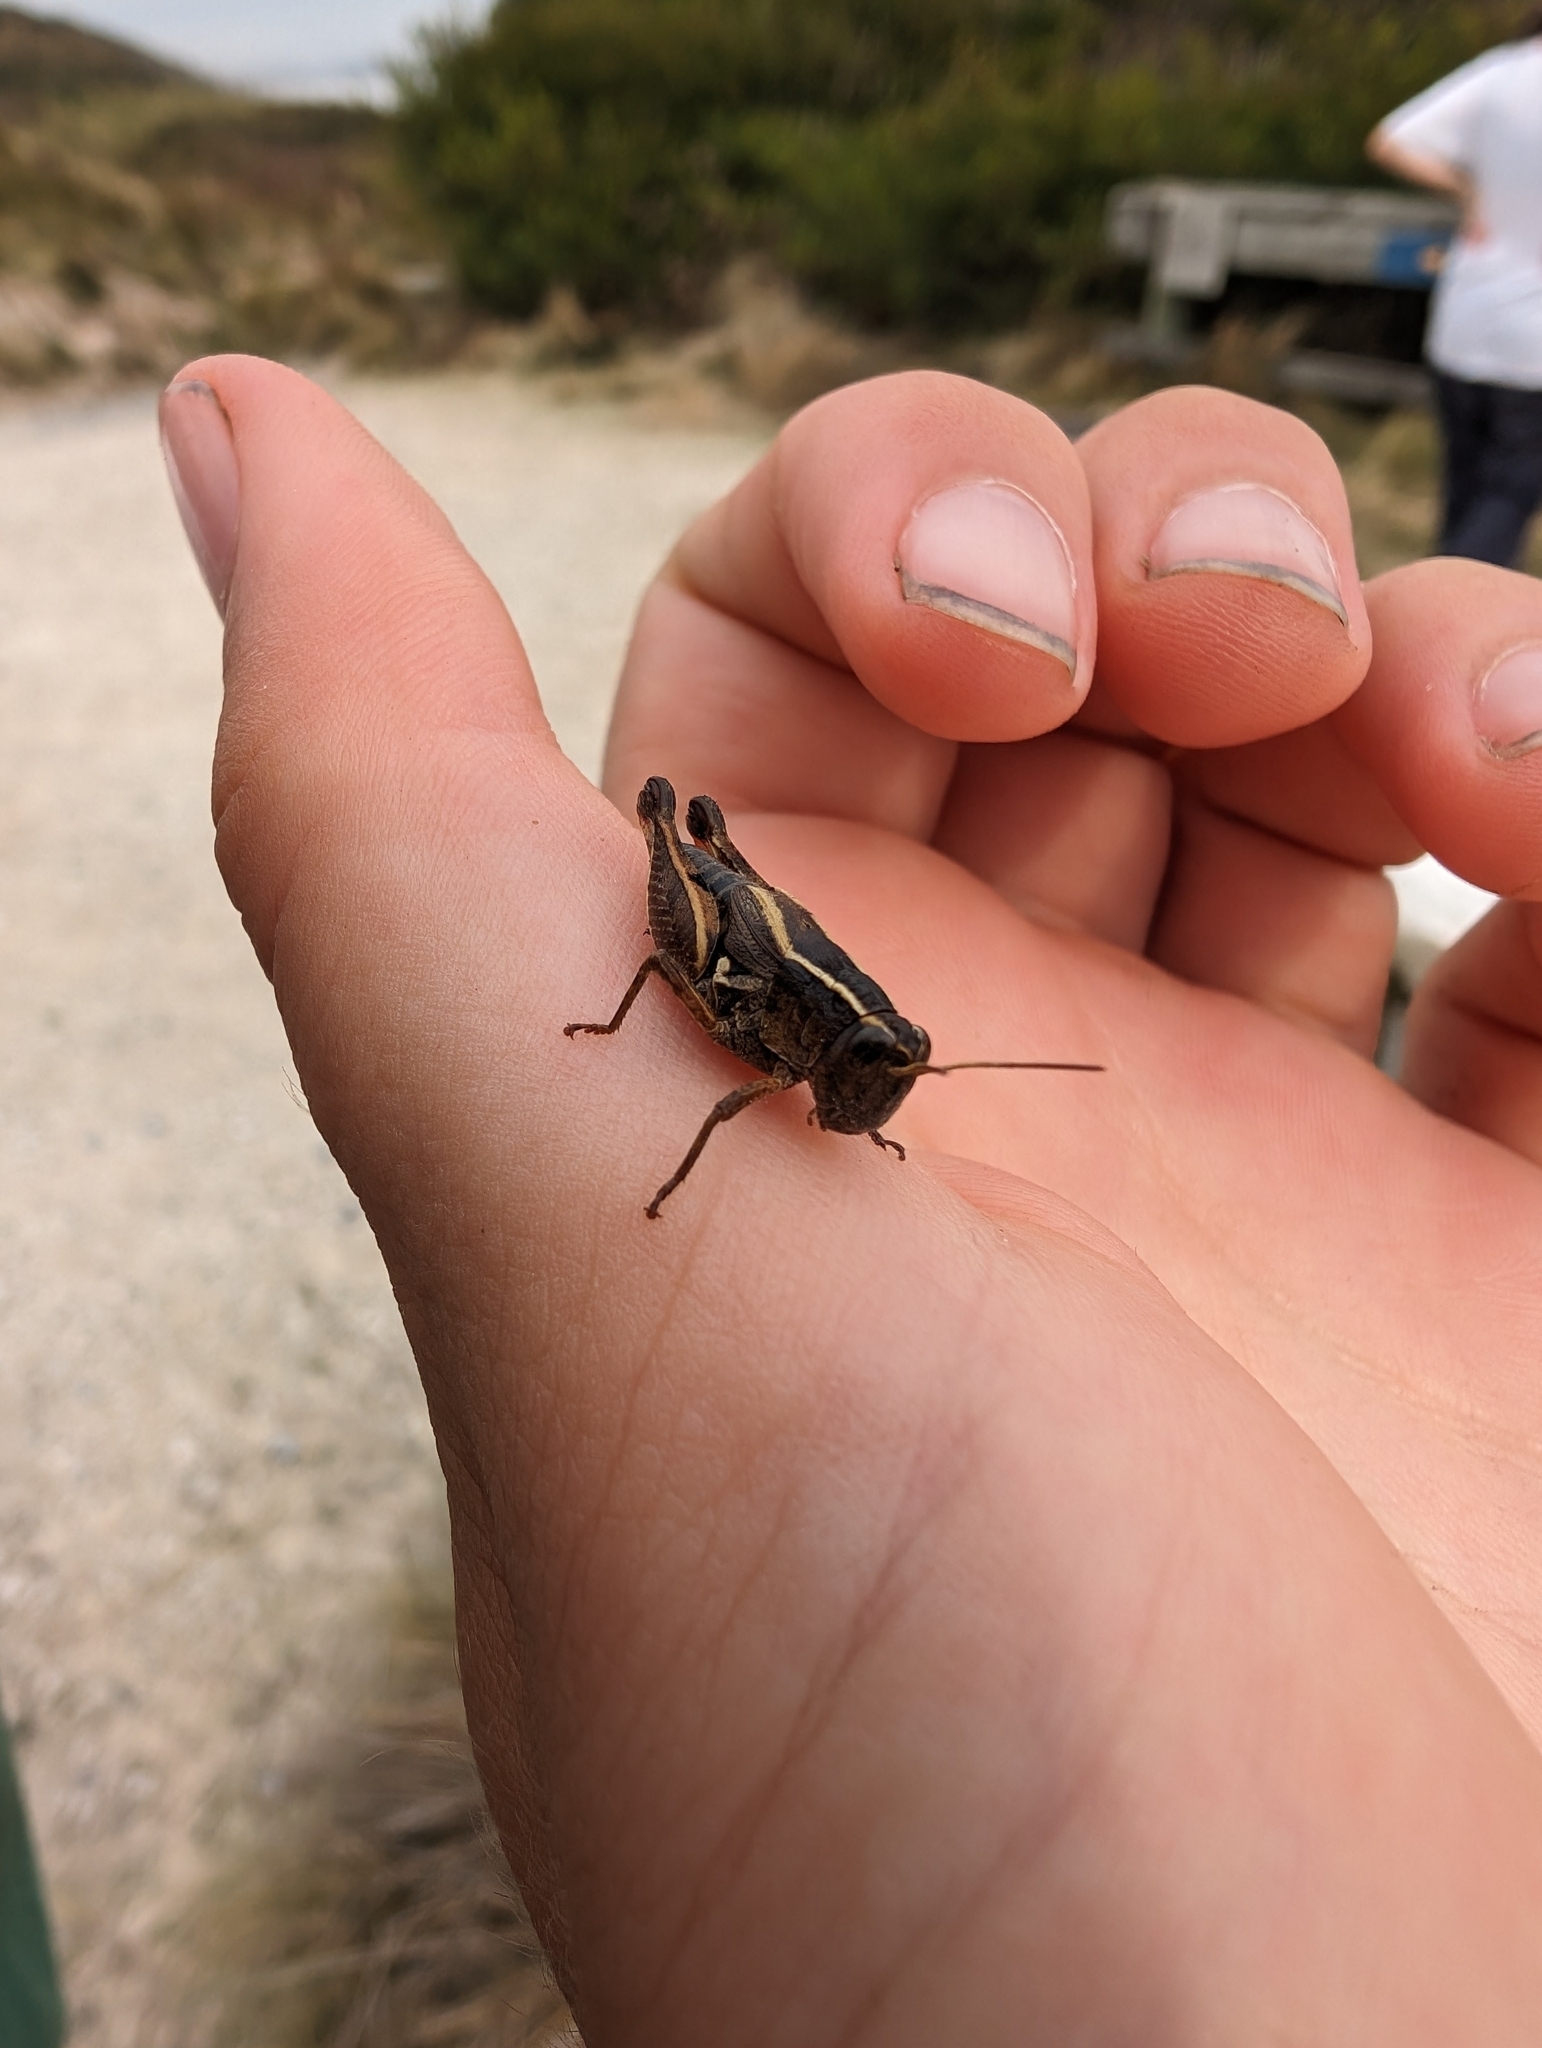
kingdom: Animalia
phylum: Arthropoda
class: Insecta
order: Orthoptera
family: Acrididae
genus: Phaulacridium
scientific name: Phaulacridium vittatum
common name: Wingless grasshopper
